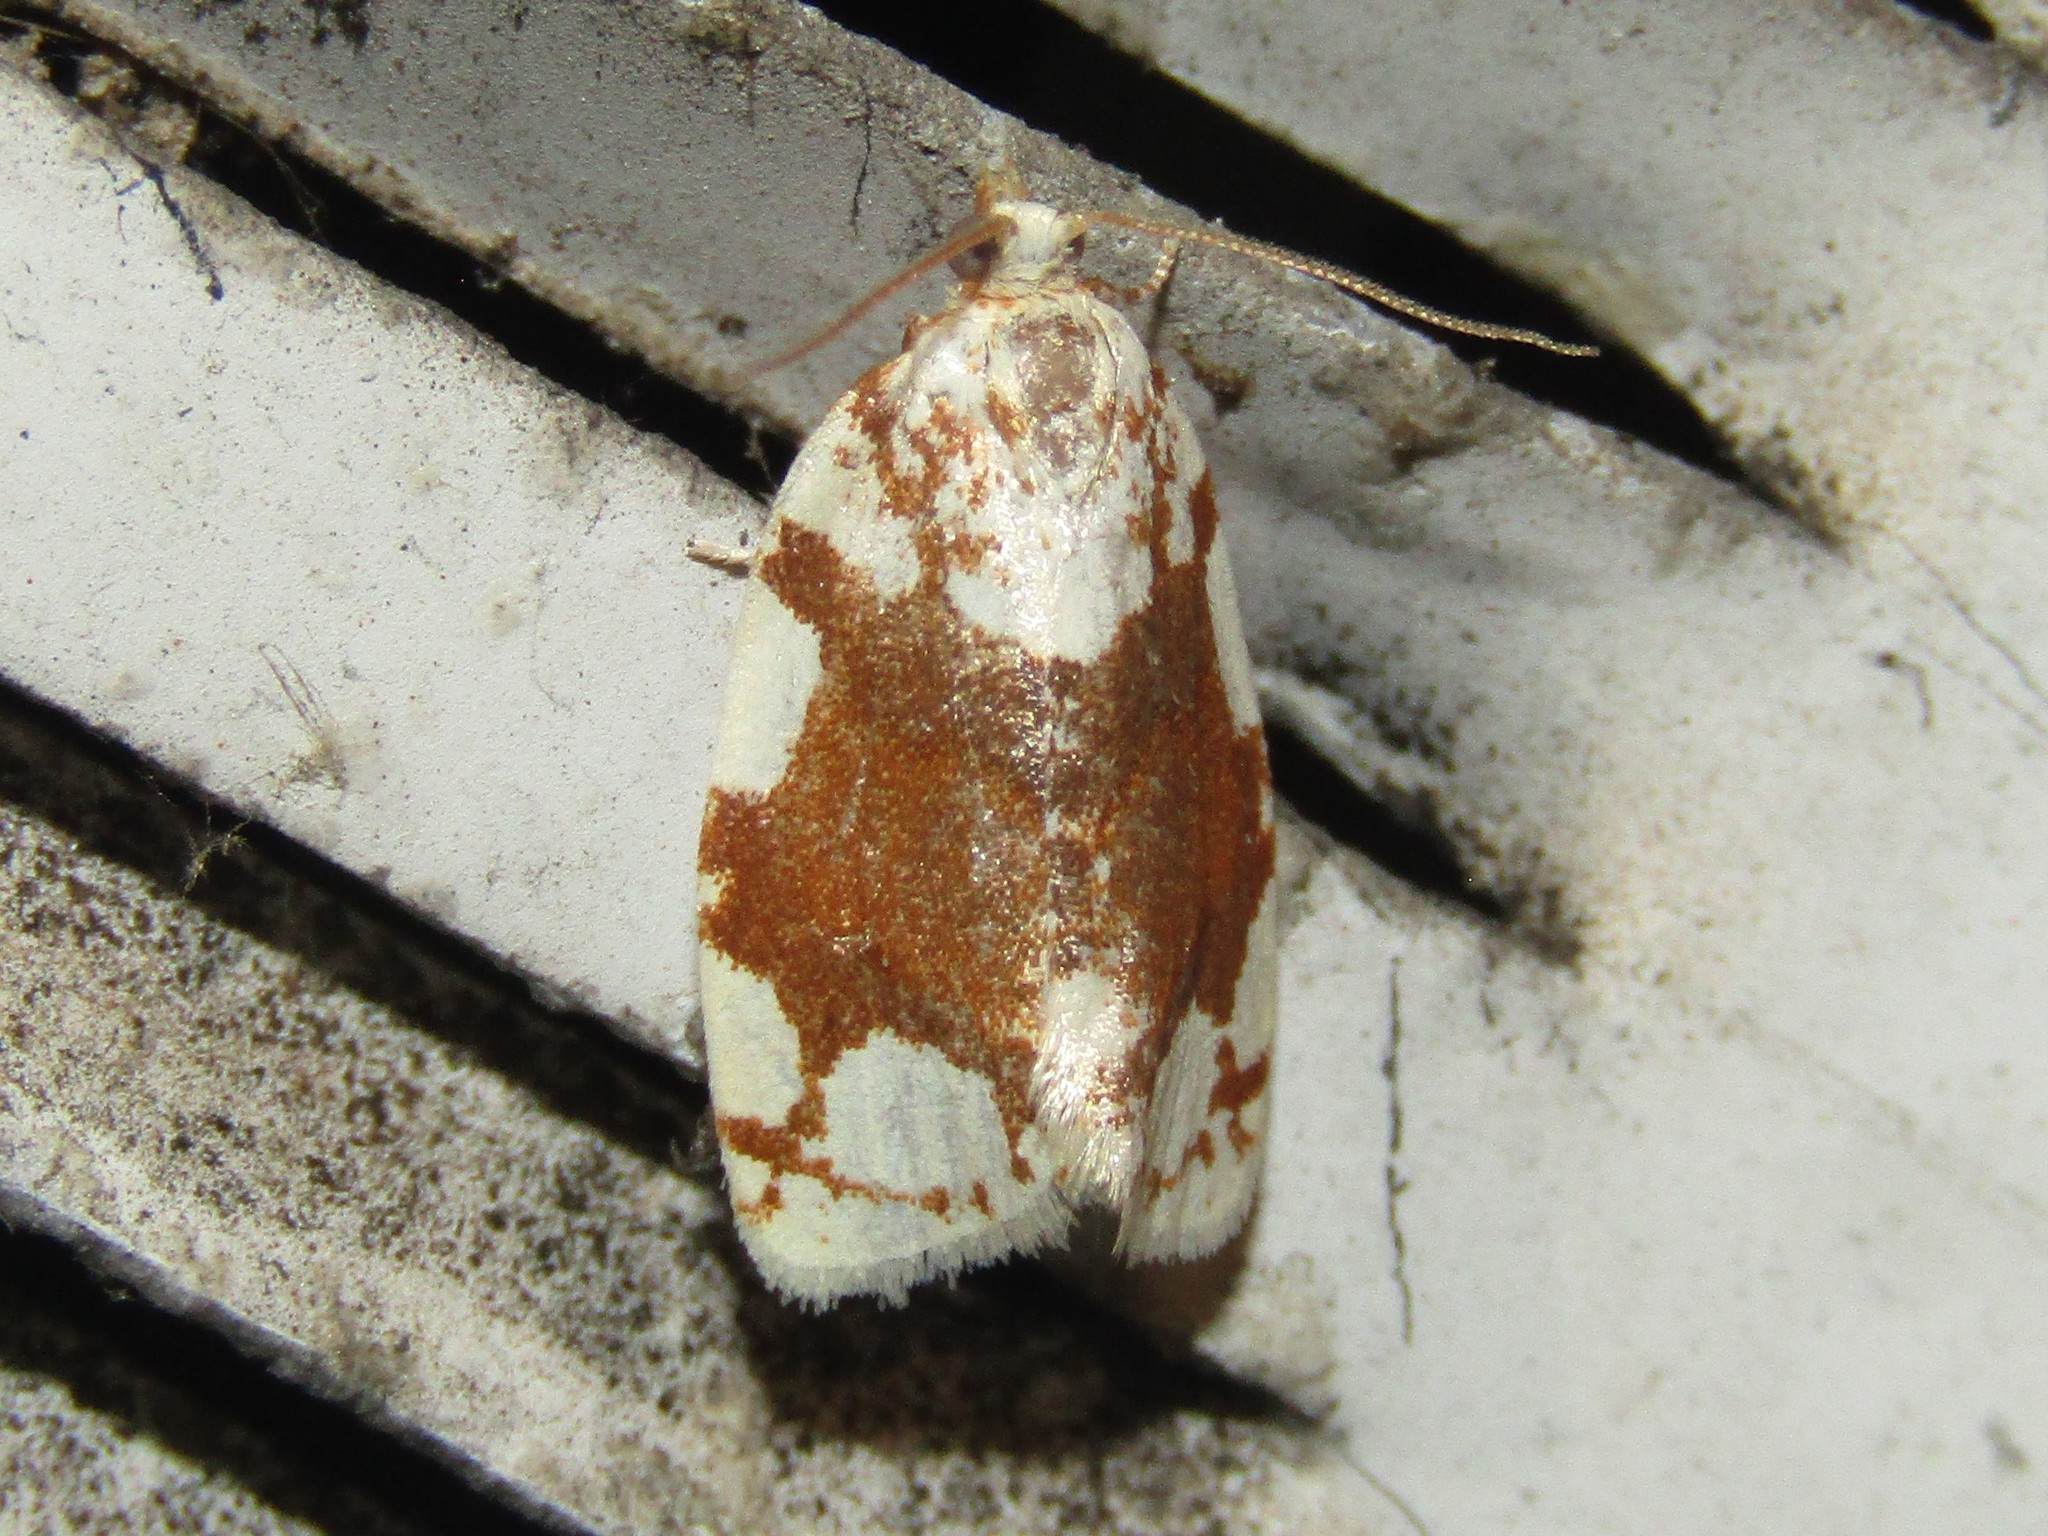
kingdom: Animalia
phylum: Arthropoda
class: Insecta
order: Lepidoptera
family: Tortricidae
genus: Argyrotaenia
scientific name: Argyrotaenia alisellana
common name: White-spotted leafroller moth
